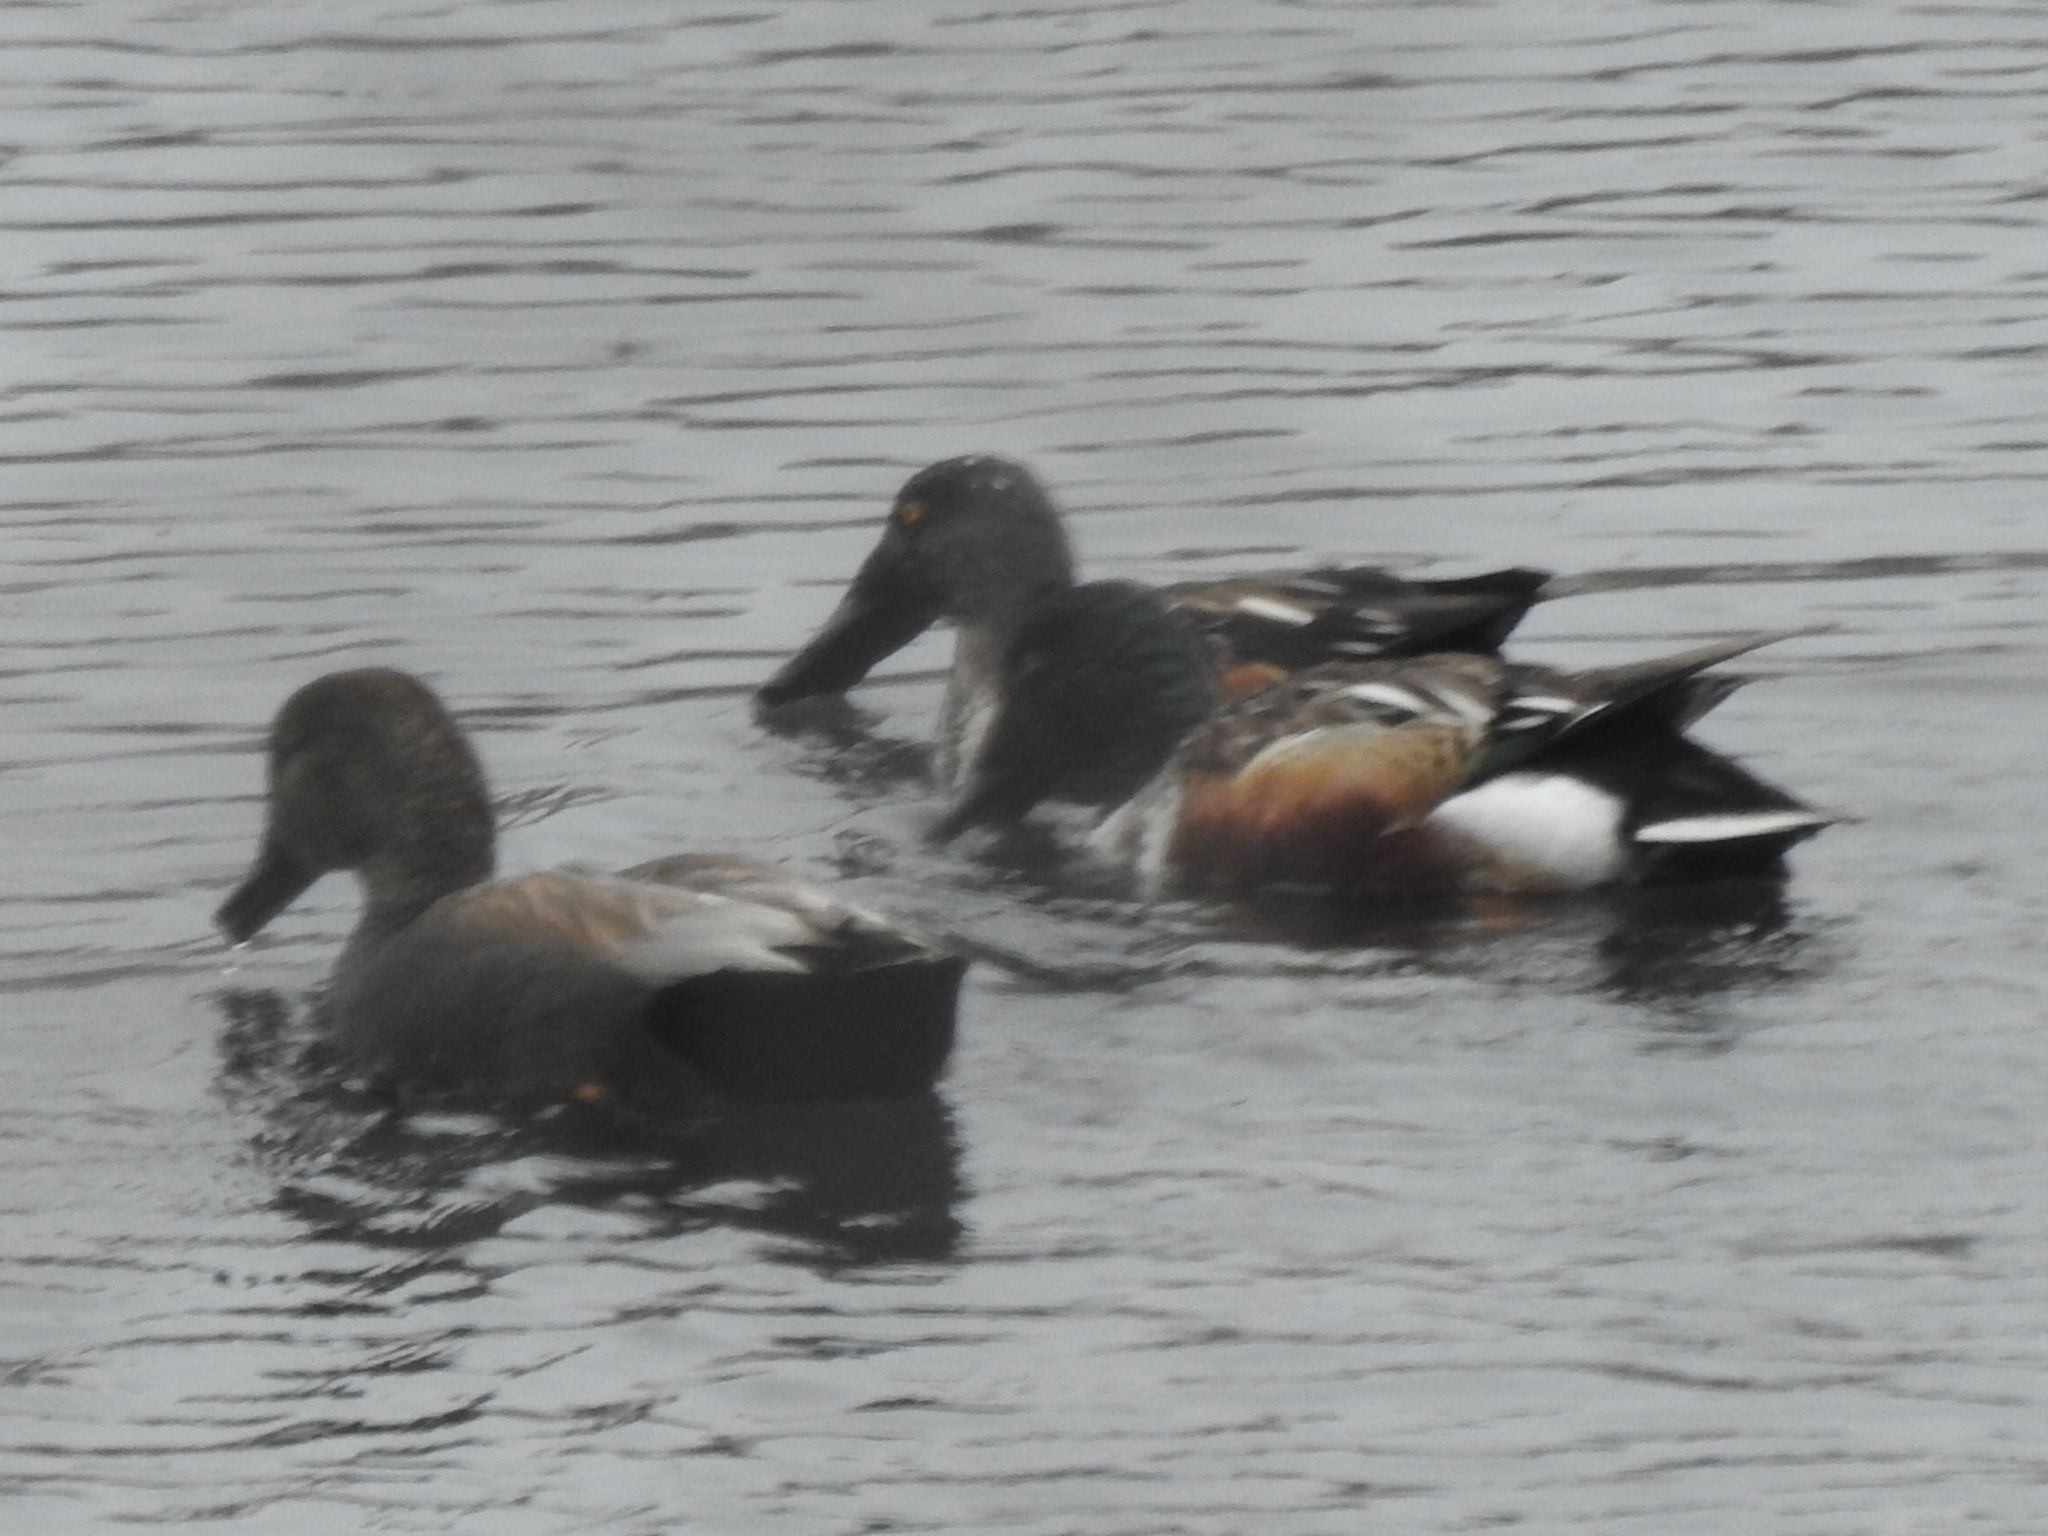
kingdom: Animalia
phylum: Chordata
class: Aves
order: Anseriformes
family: Anatidae
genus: Spatula
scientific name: Spatula clypeata
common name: Northern shoveler
